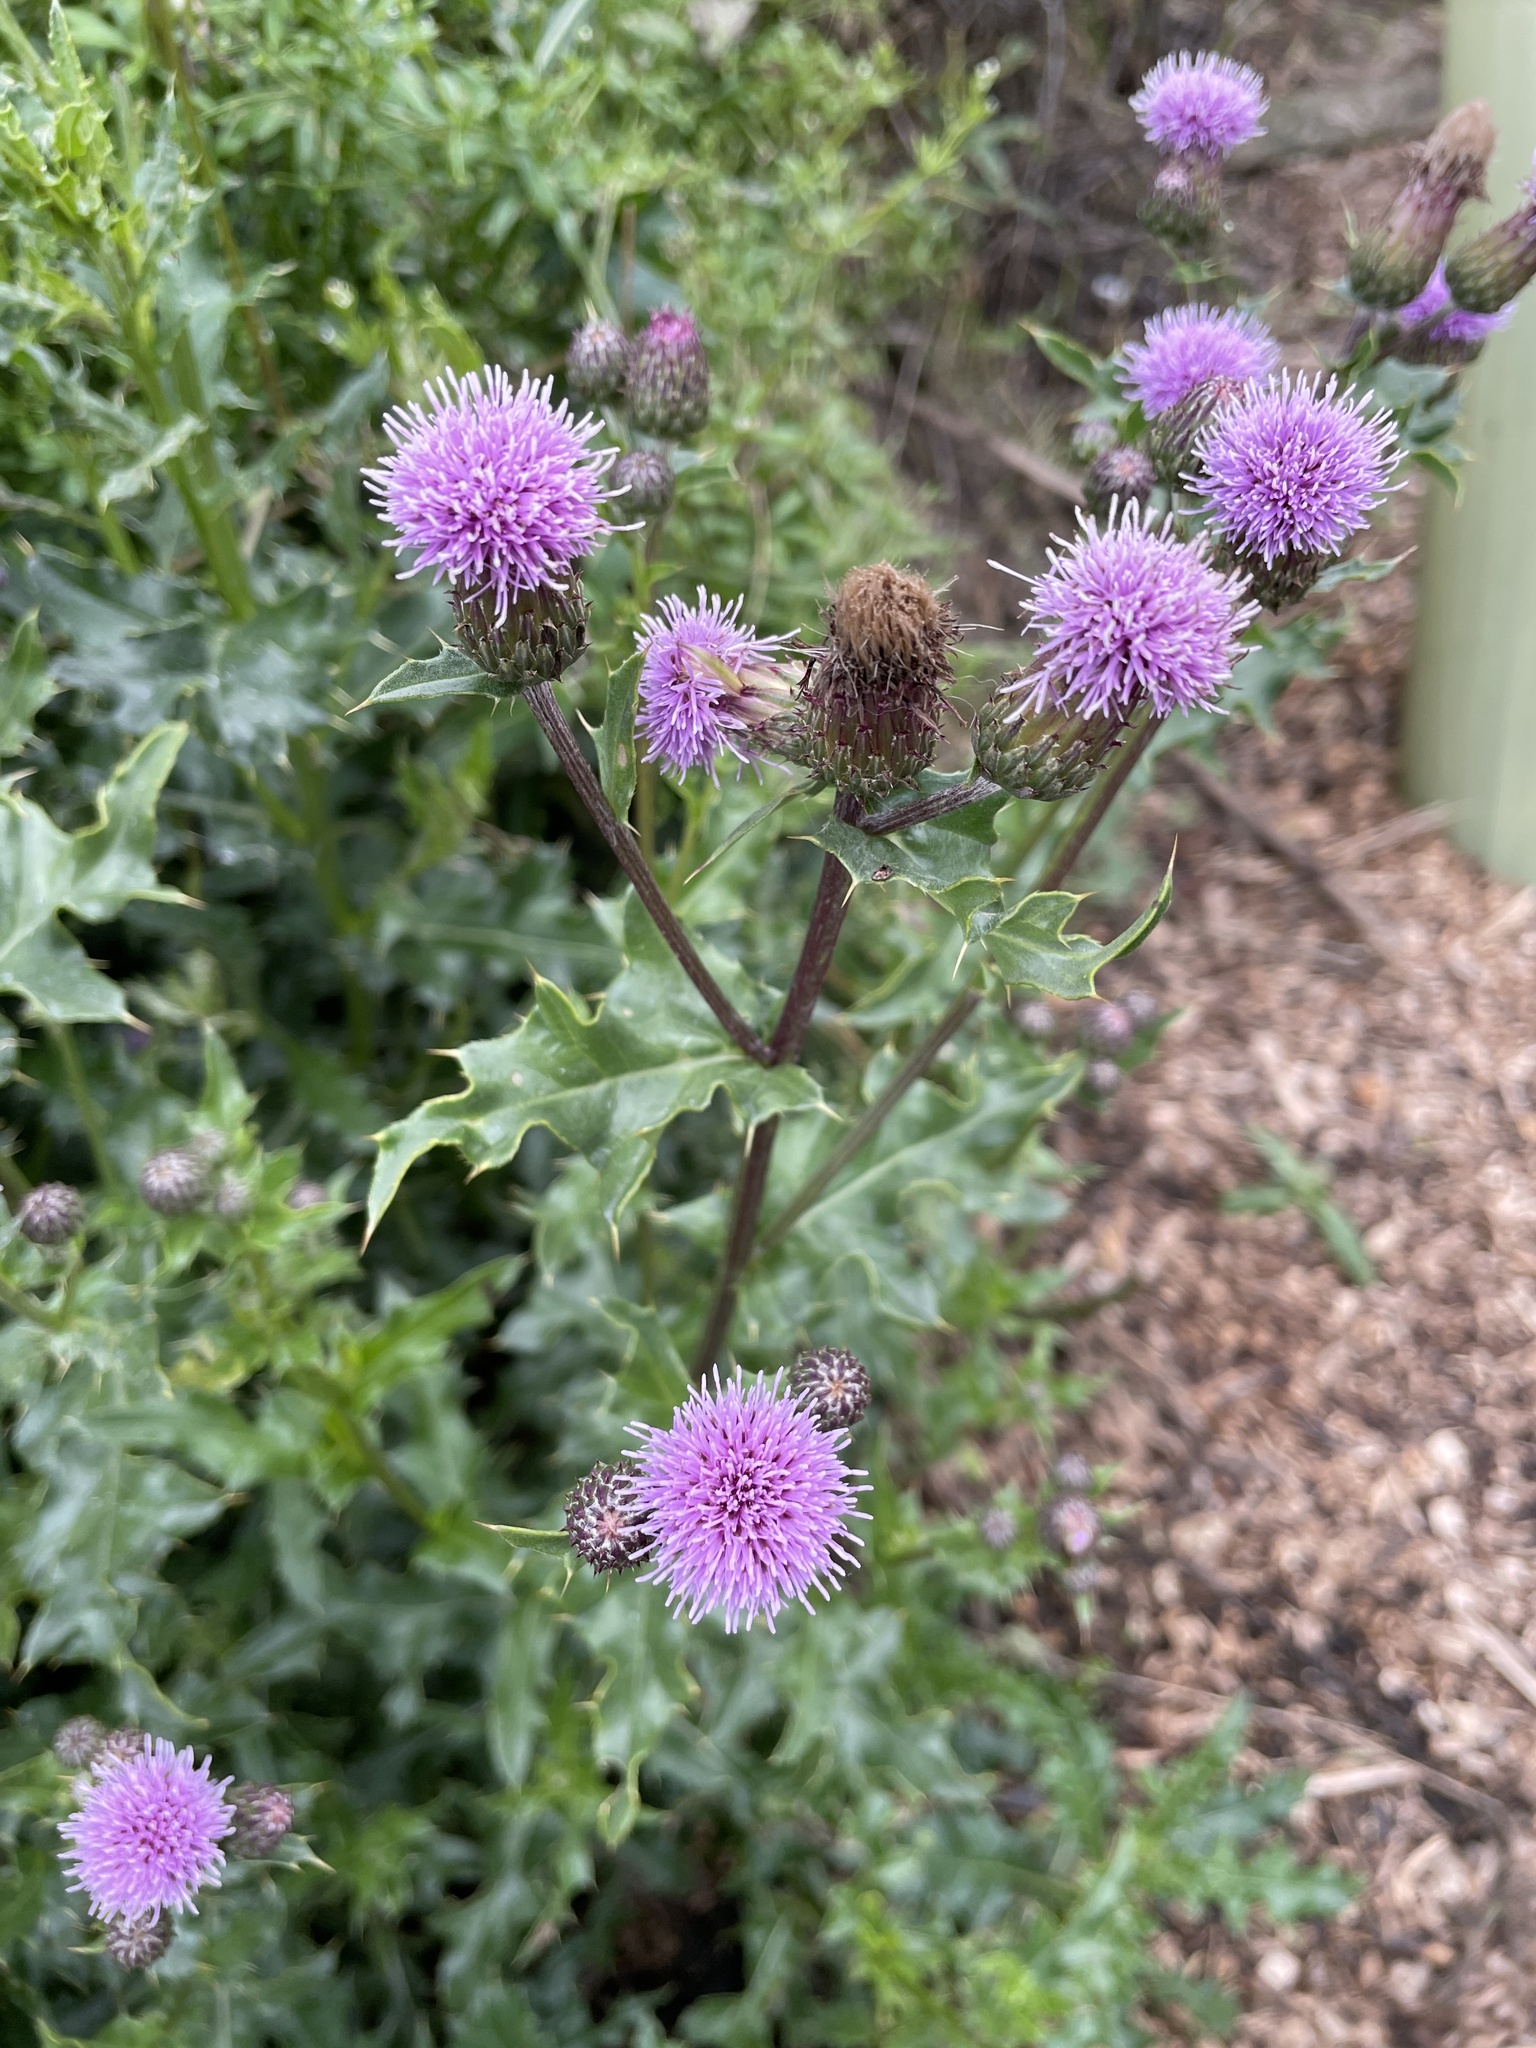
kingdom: Plantae
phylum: Tracheophyta
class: Magnoliopsida
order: Asterales
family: Asteraceae
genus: Cirsium
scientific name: Cirsium arvense
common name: Creeping thistle
